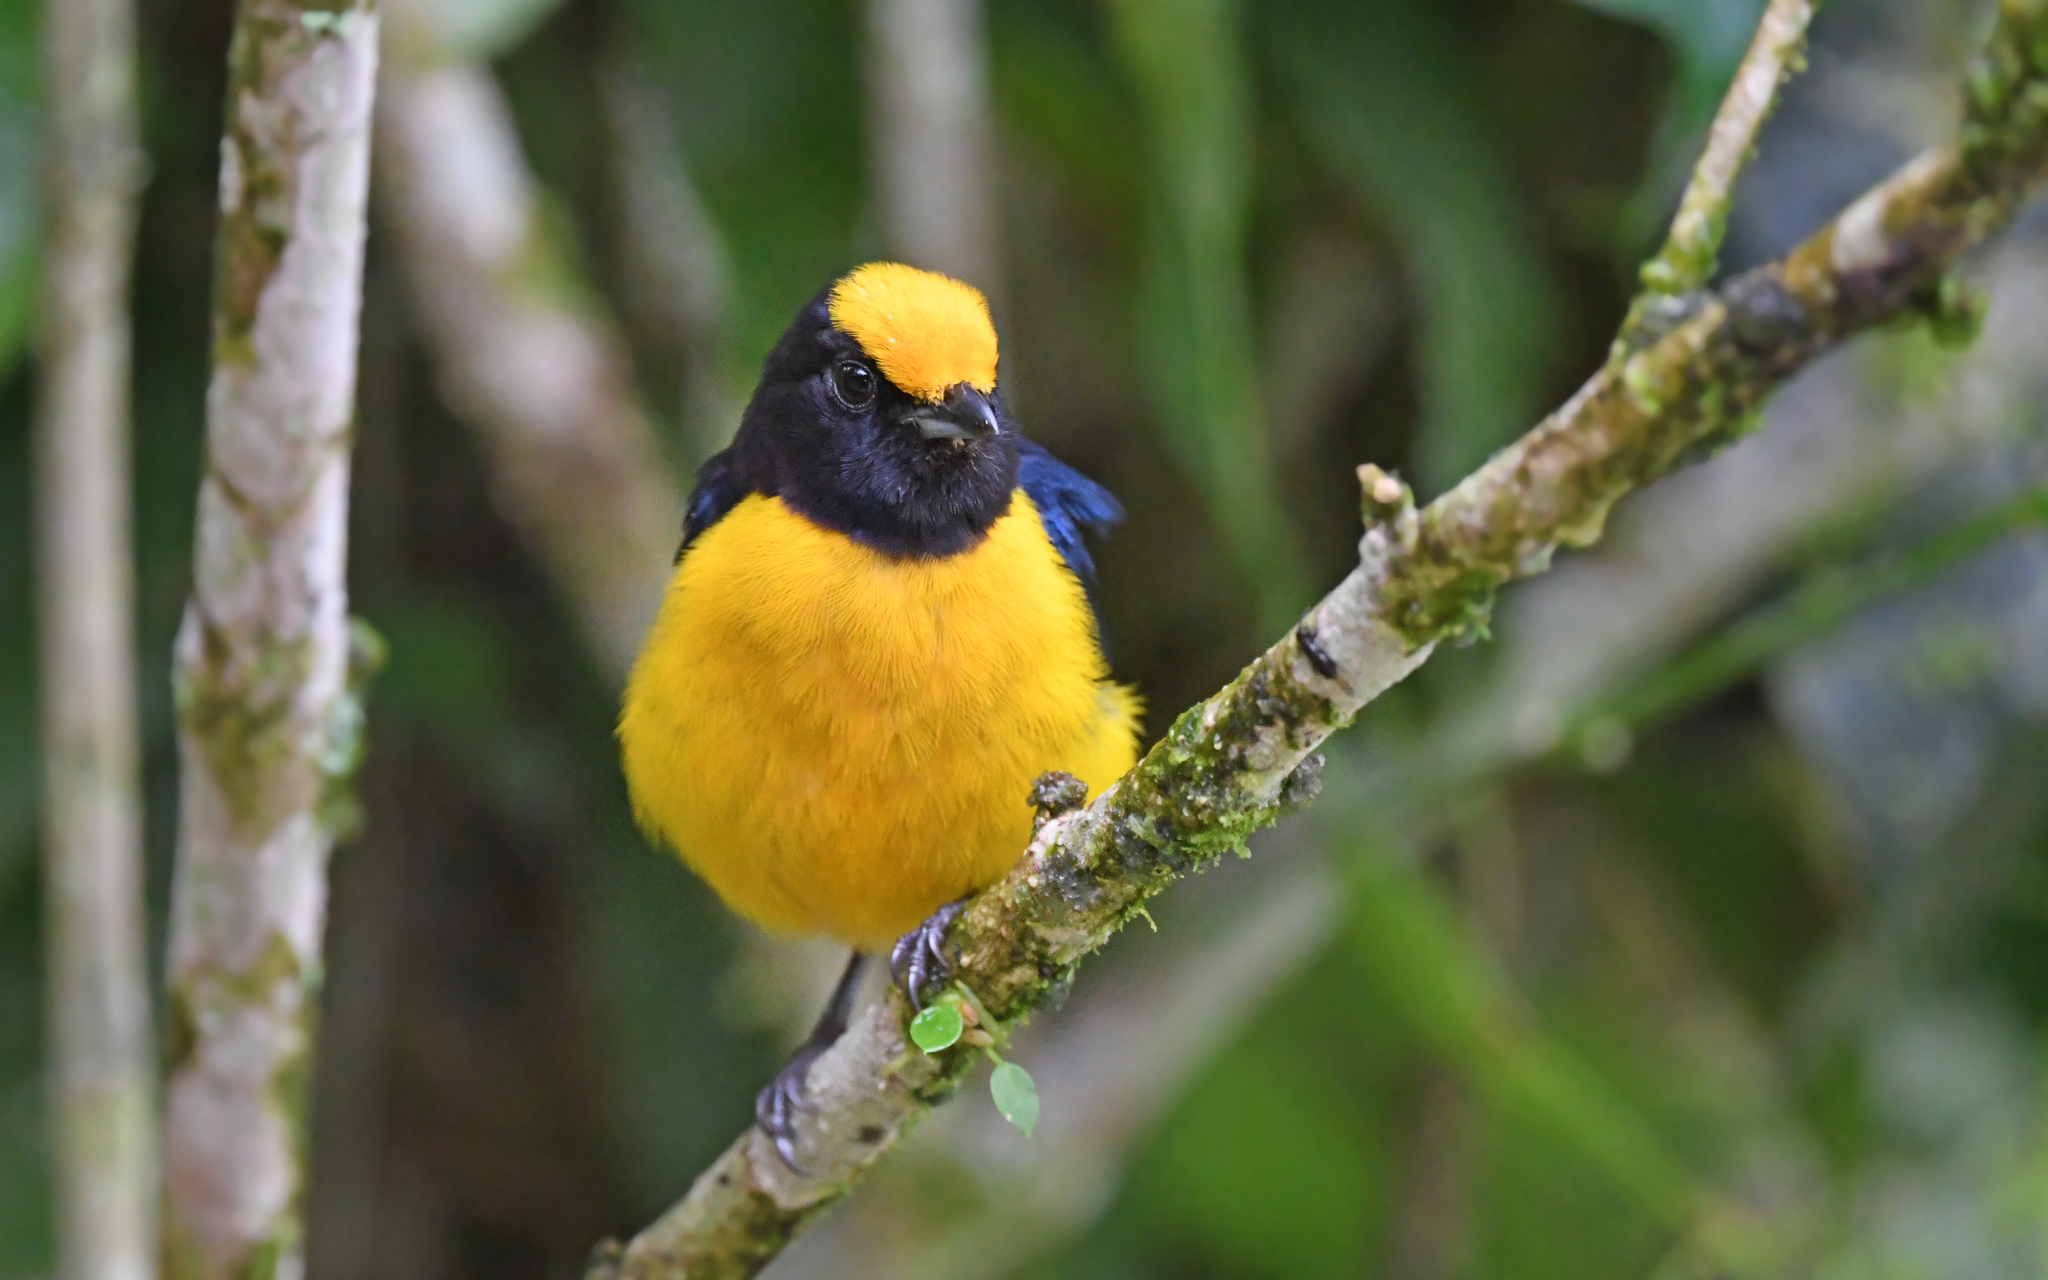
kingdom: Animalia
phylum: Chordata
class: Aves
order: Passeriformes
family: Fringillidae
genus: Euphonia
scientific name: Euphonia xanthogaster
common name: Orange-bellied euphonia
